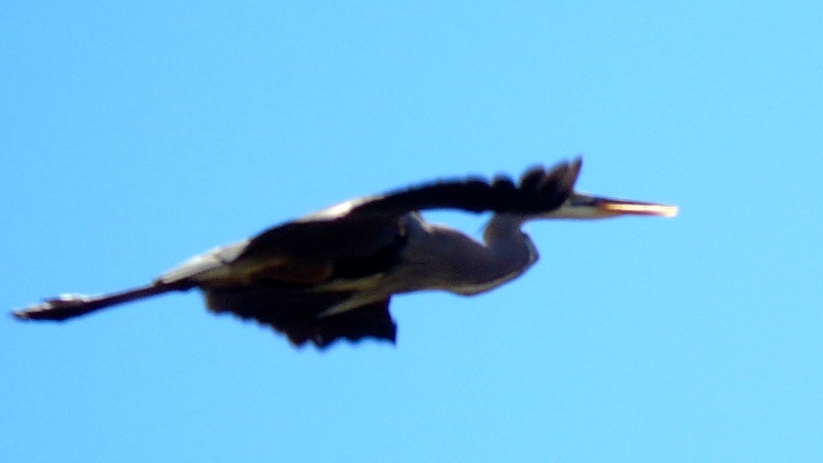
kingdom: Animalia
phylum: Chordata
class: Aves
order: Pelecaniformes
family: Ardeidae
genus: Ardea
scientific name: Ardea herodias
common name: Great blue heron
